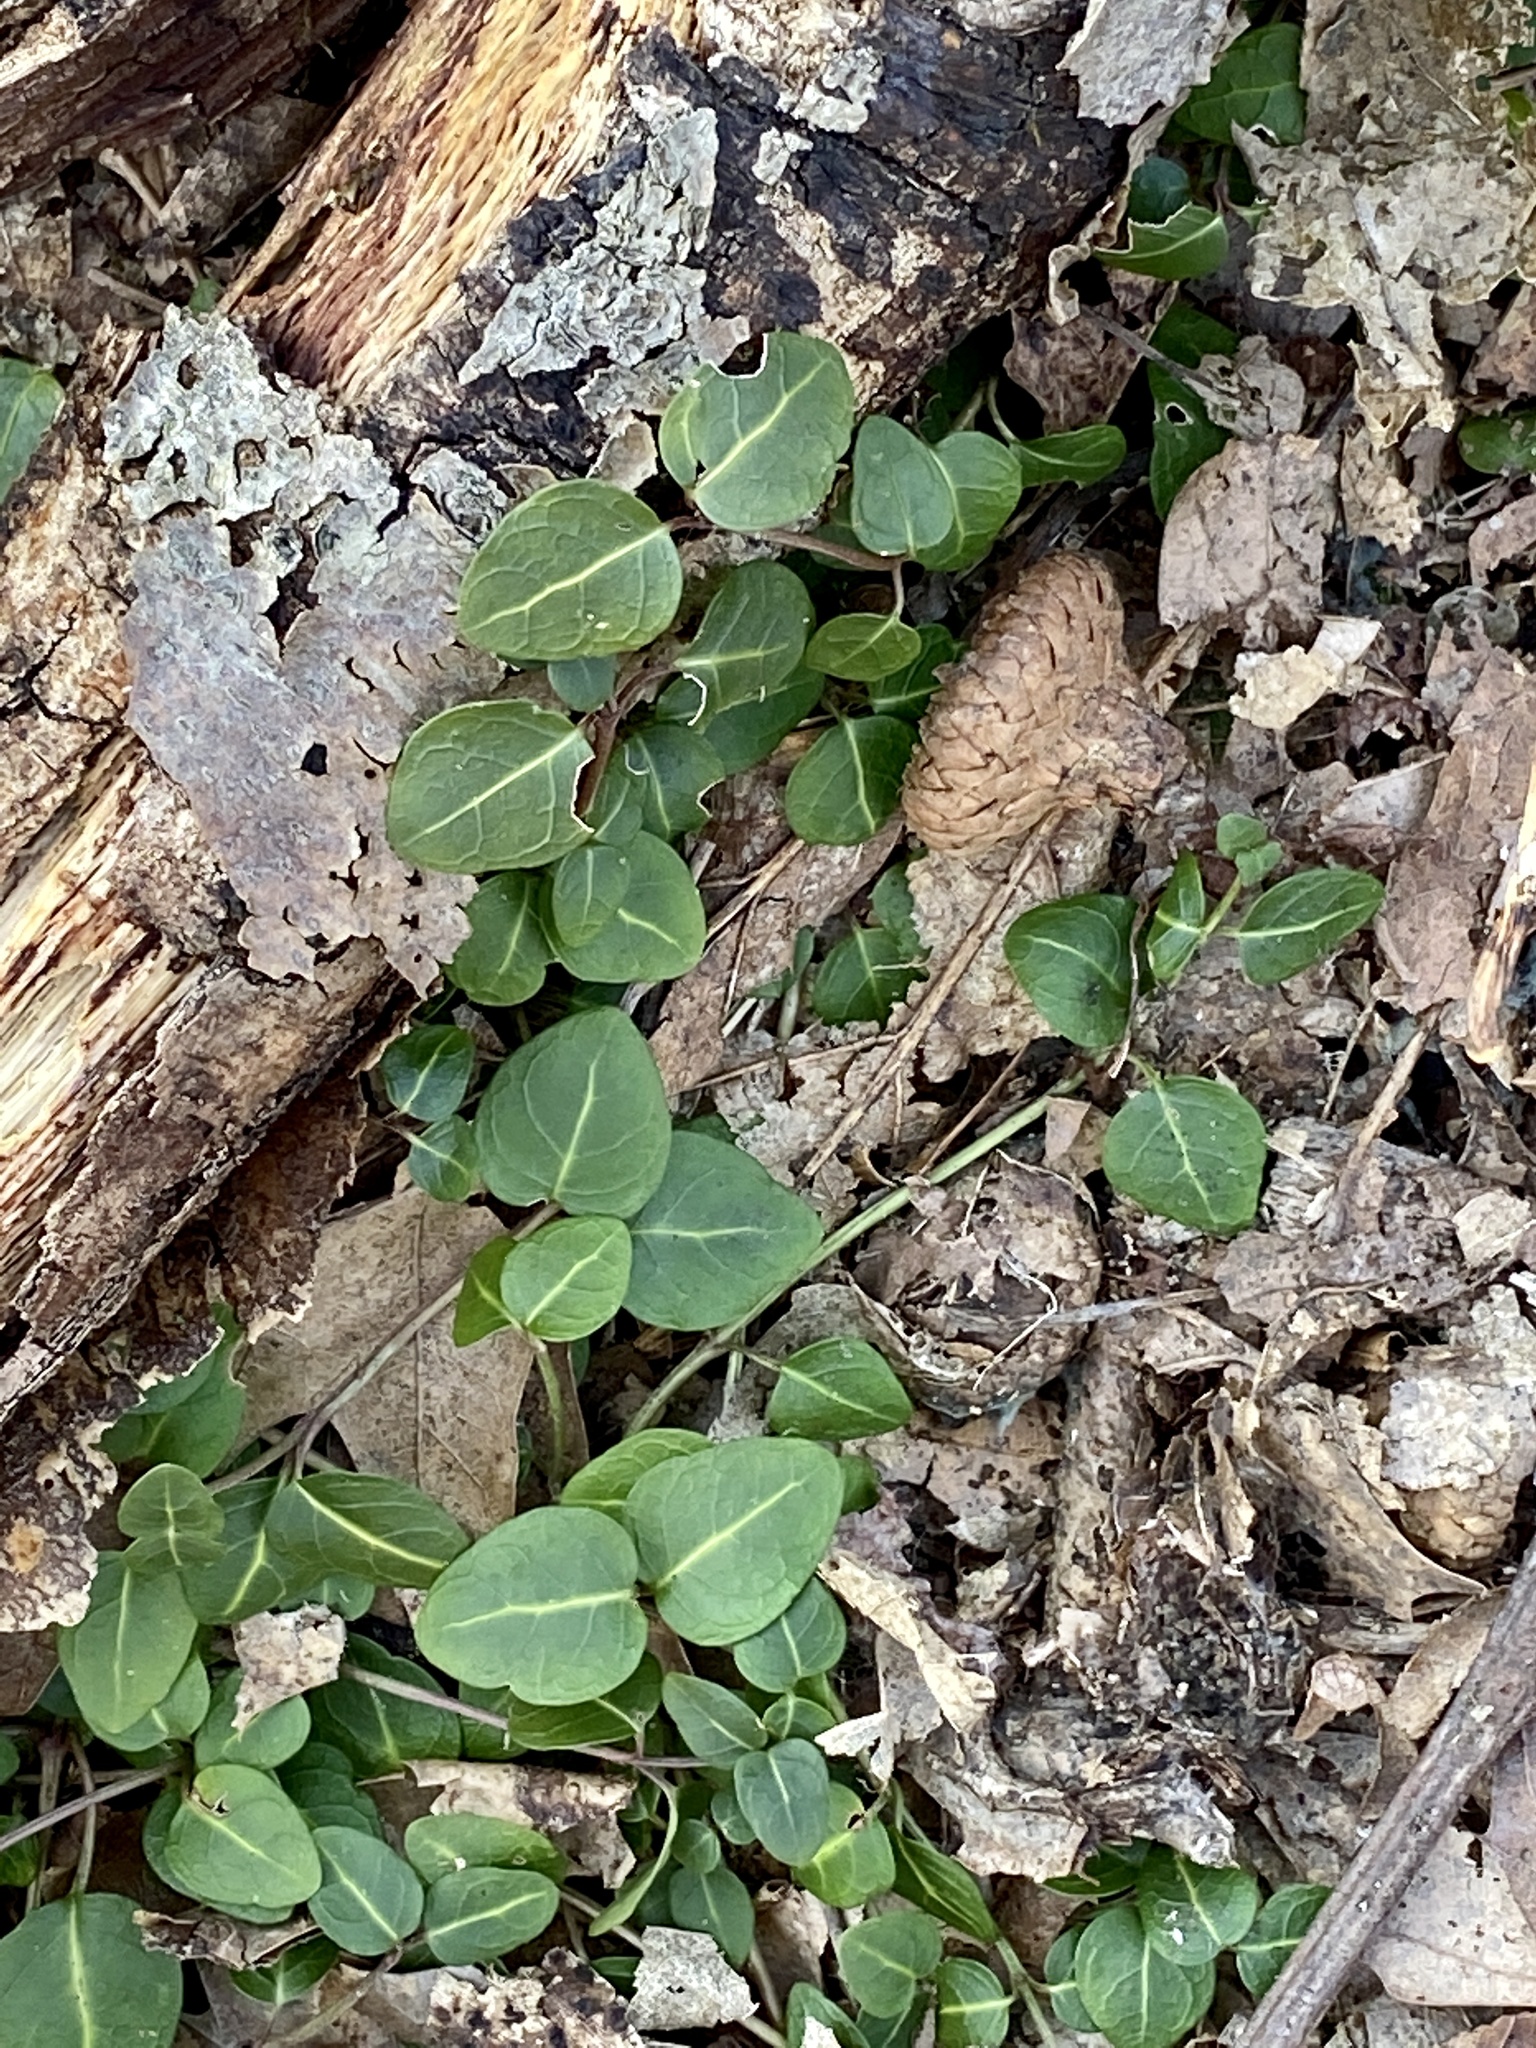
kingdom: Plantae
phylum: Tracheophyta
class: Magnoliopsida
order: Gentianales
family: Rubiaceae
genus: Mitchella
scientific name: Mitchella repens
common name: Partridge-berry
